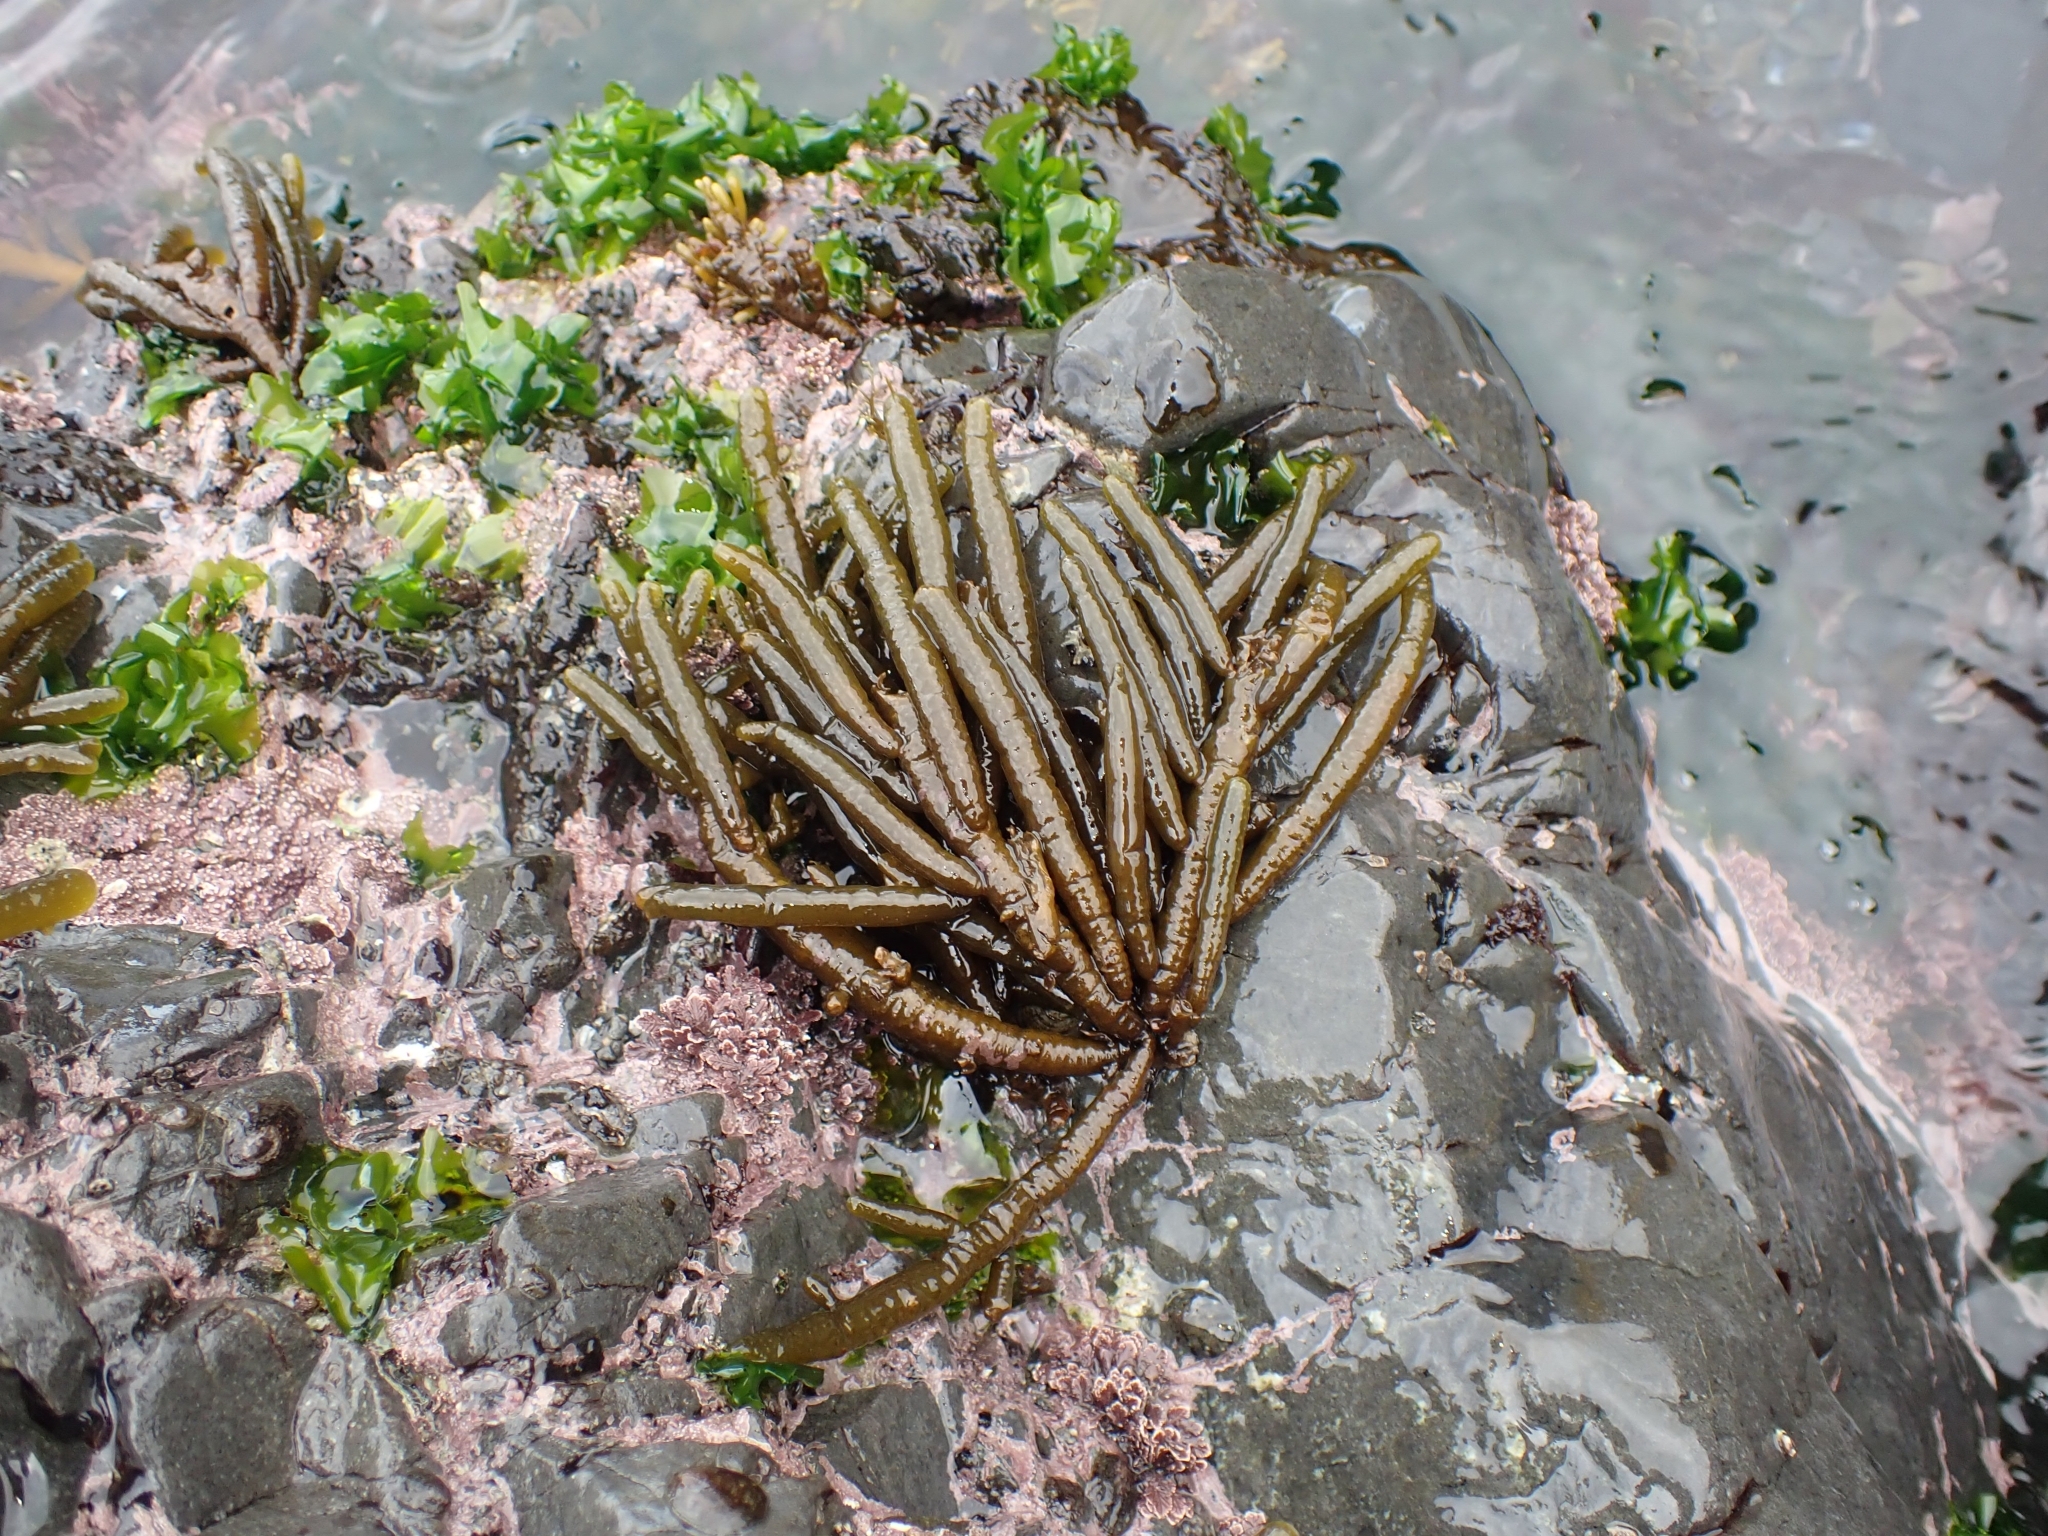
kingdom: Chromista
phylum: Ochrophyta
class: Phaeophyceae
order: Scytothamnales
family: Splachnidiaceae
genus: Splachnidium
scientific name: Splachnidium rugosum
